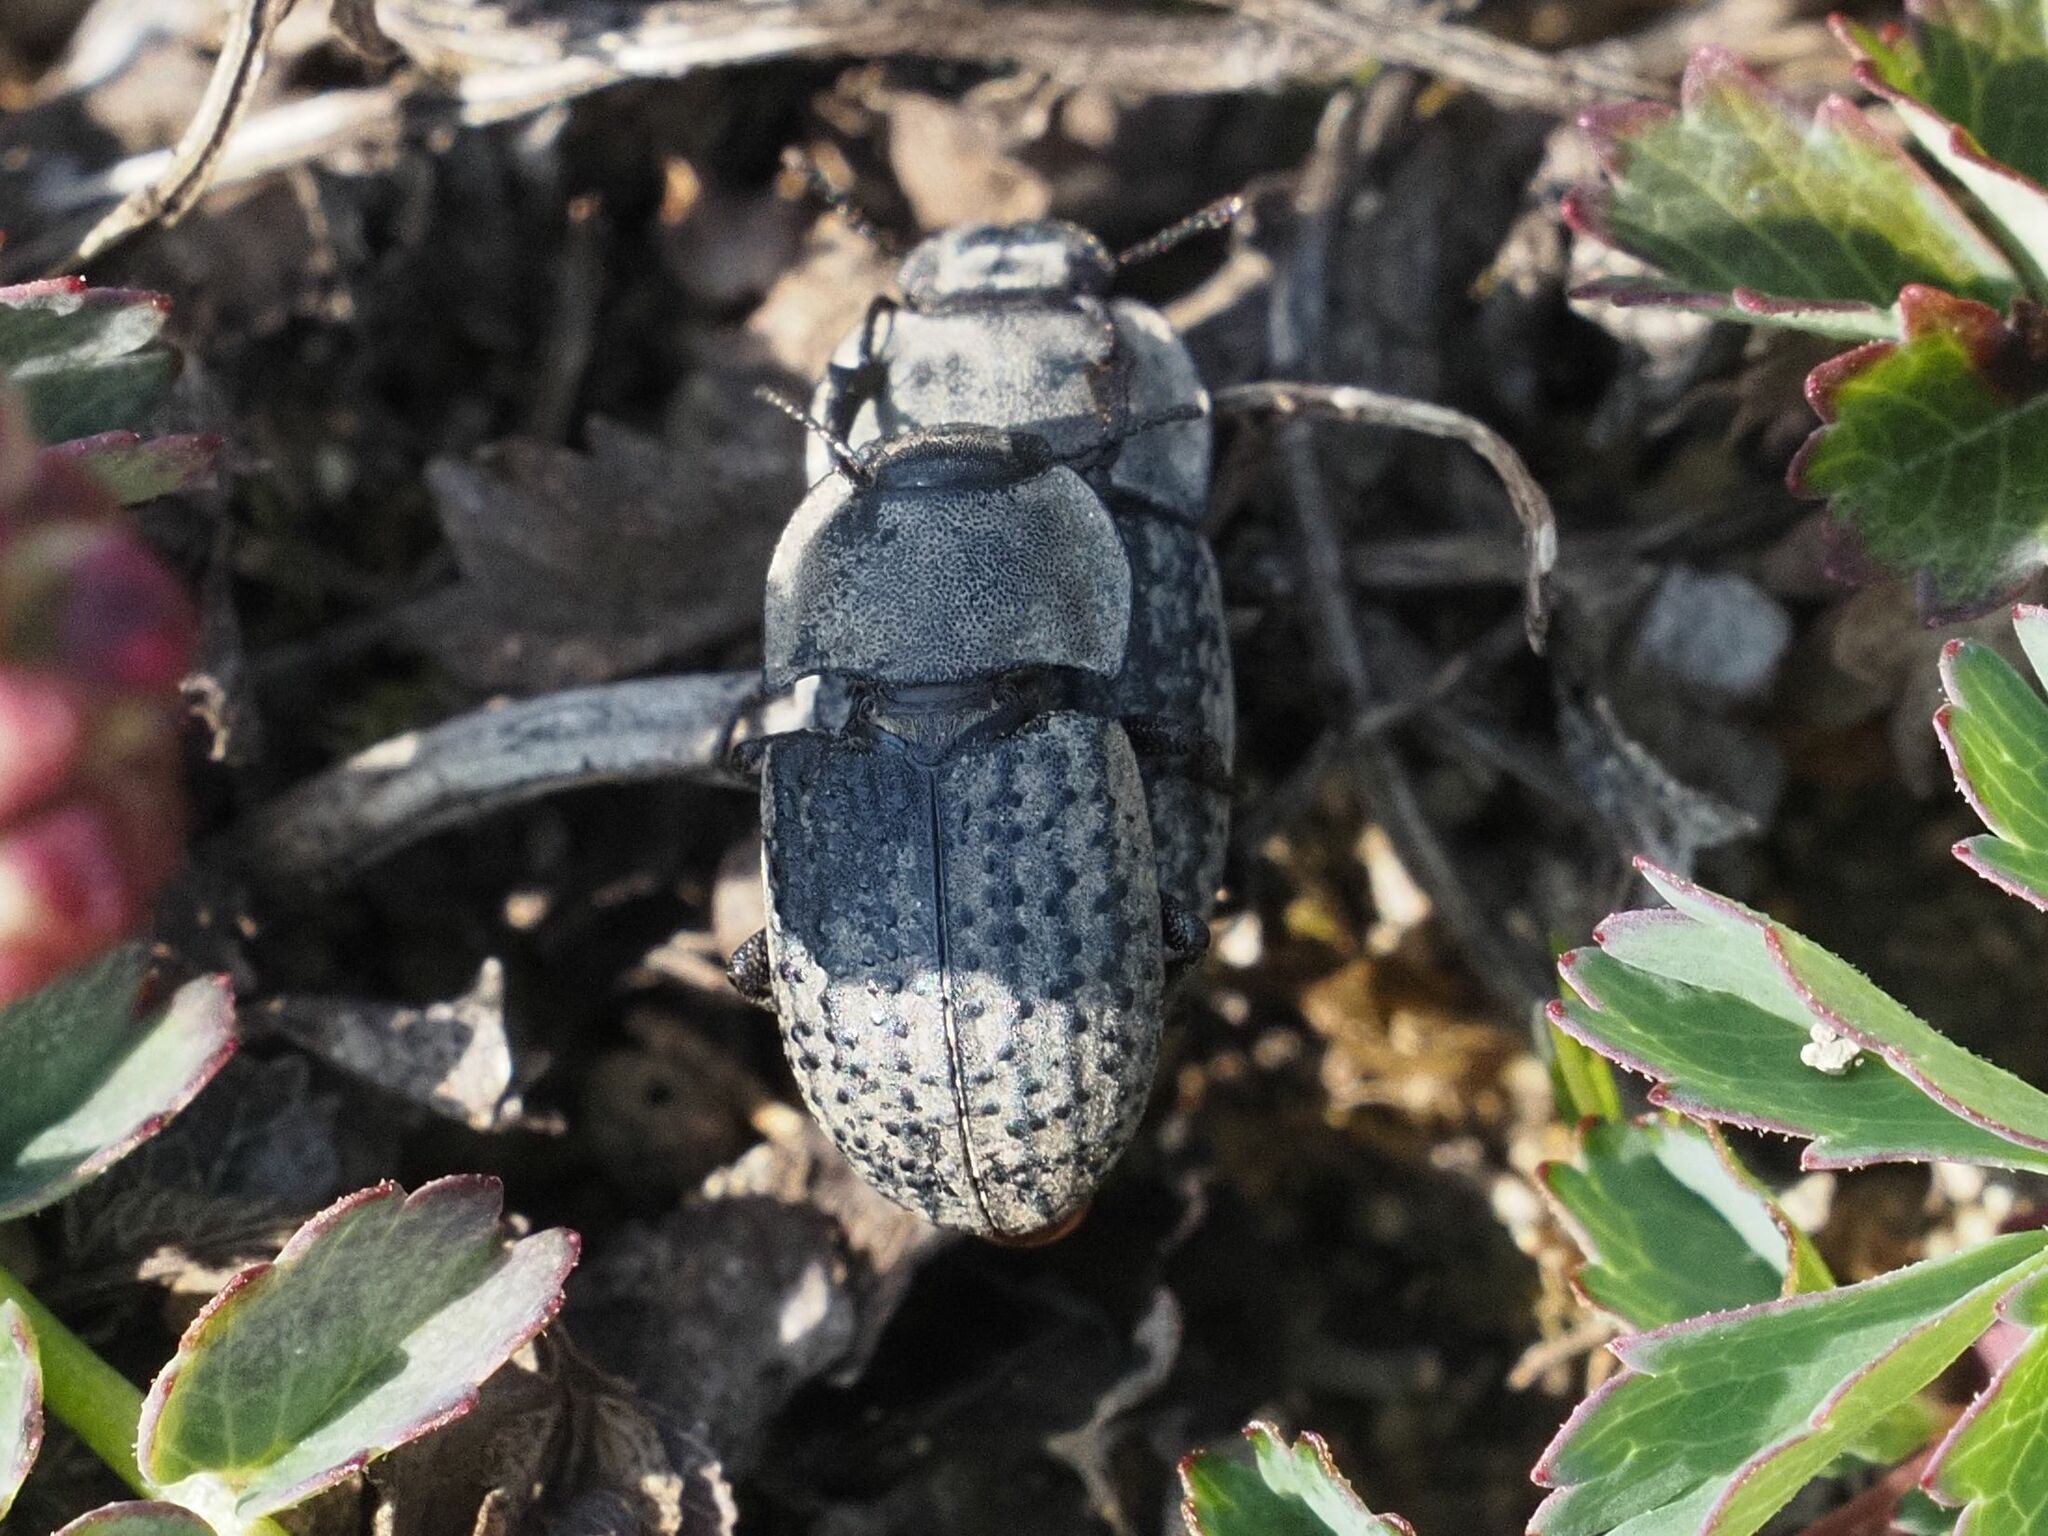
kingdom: Animalia
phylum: Arthropoda
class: Insecta
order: Coleoptera
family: Tenebrionidae
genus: Opatrum
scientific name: Opatrum sabulosum
